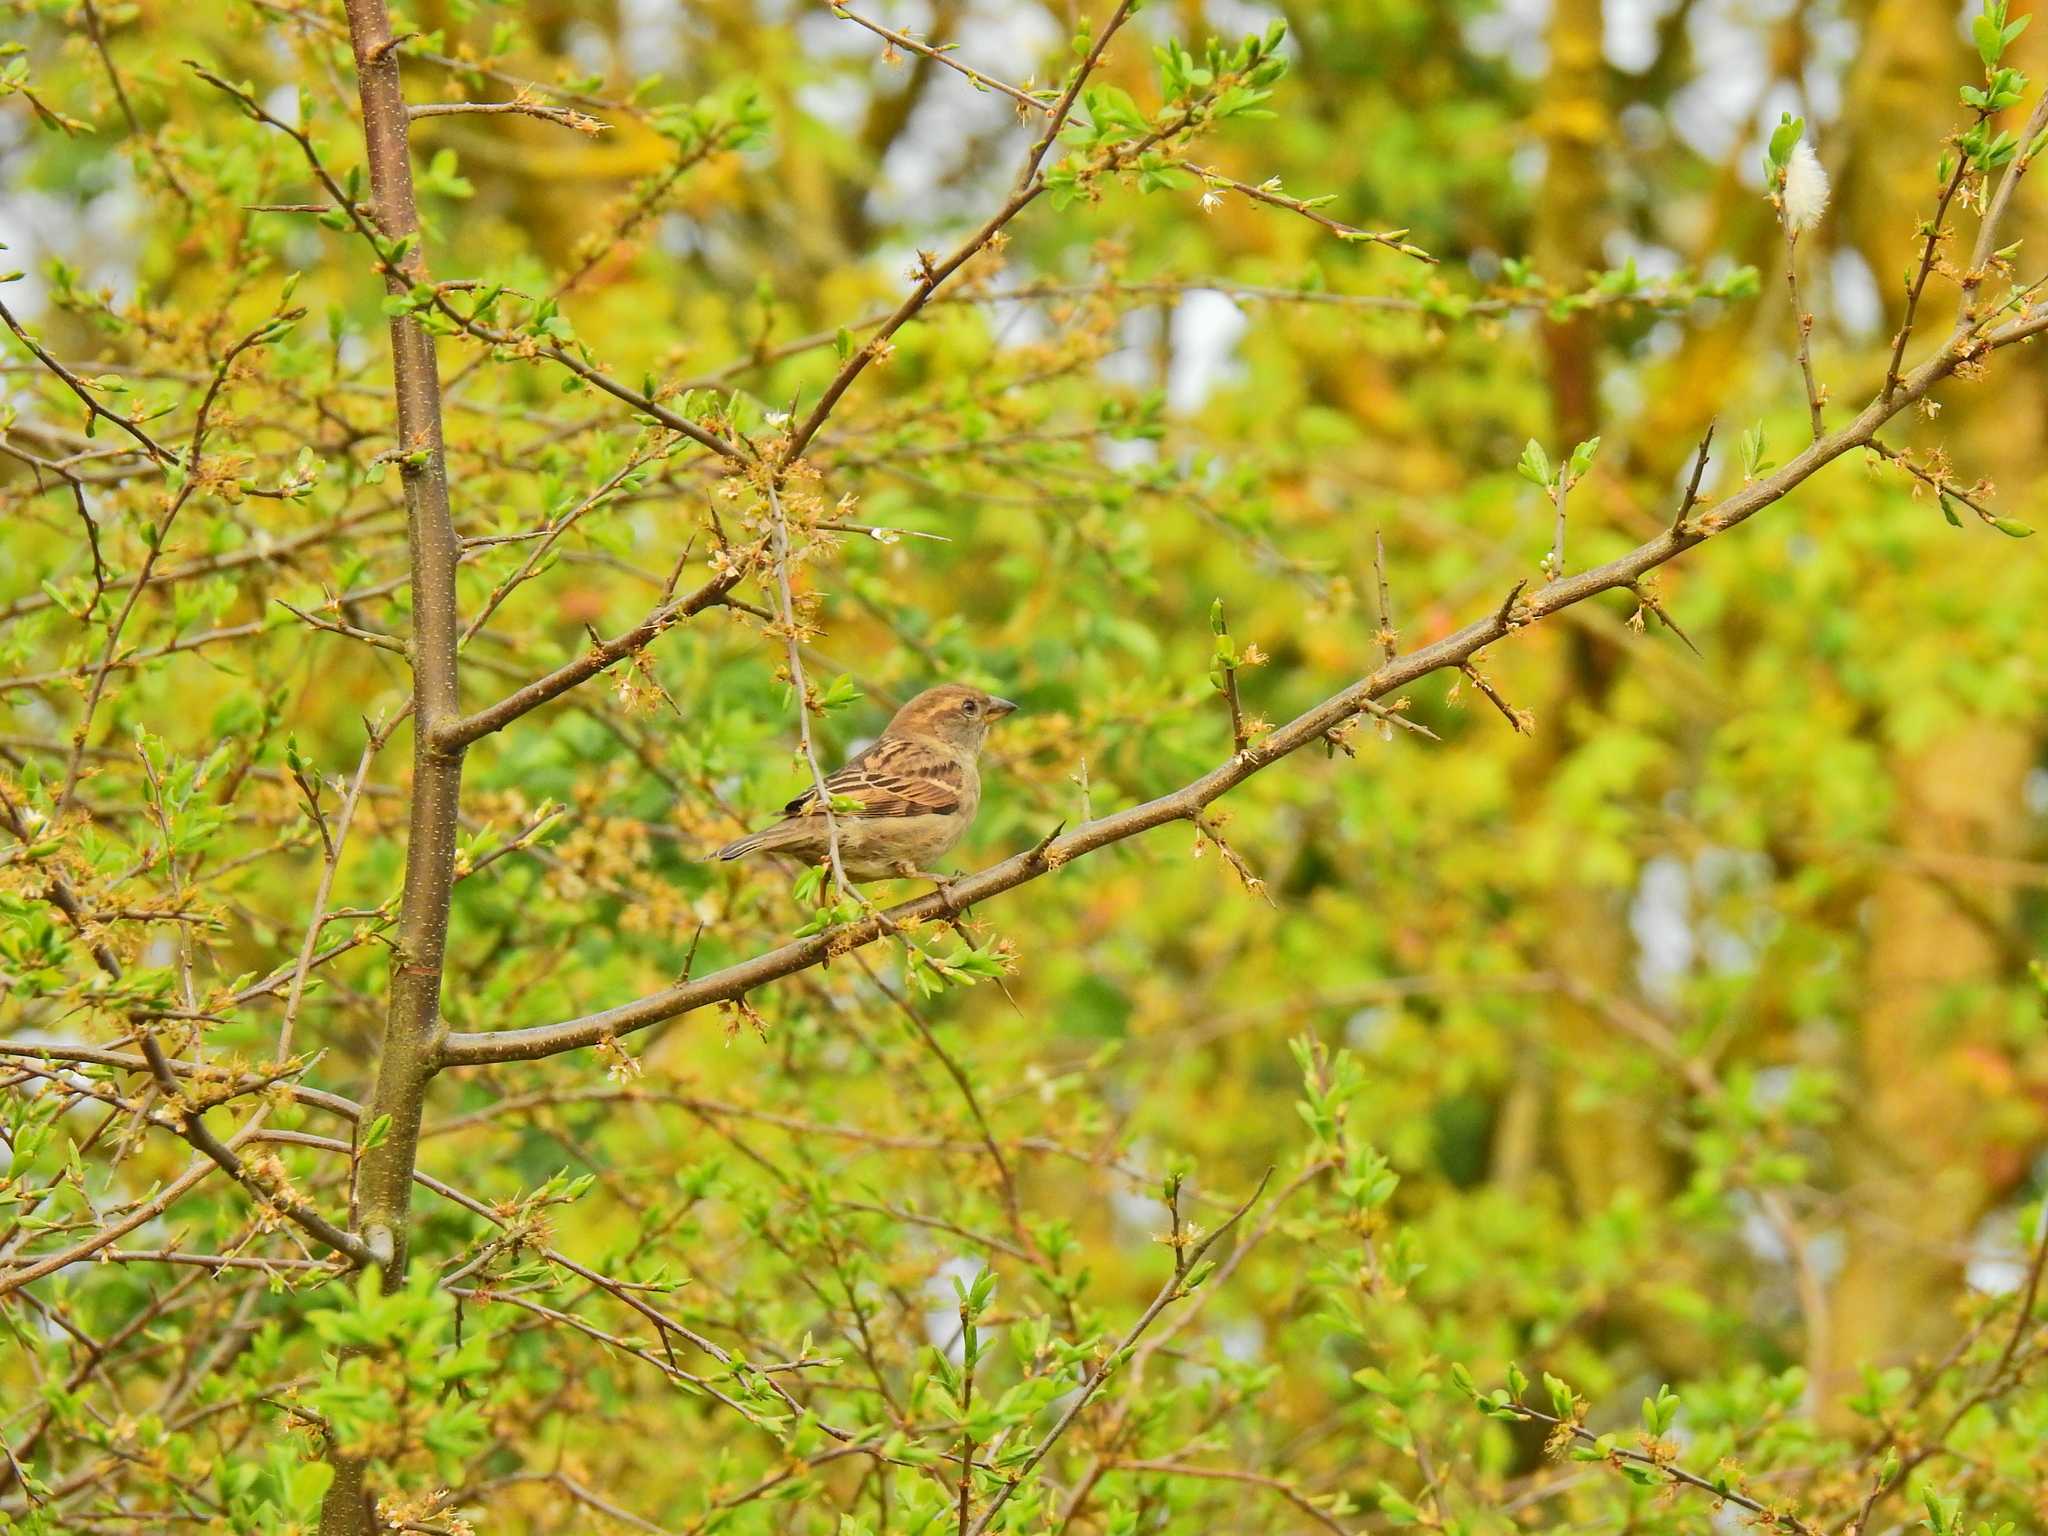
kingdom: Animalia
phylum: Chordata
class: Aves
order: Passeriformes
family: Passeridae
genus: Passer
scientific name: Passer domesticus
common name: House sparrow
